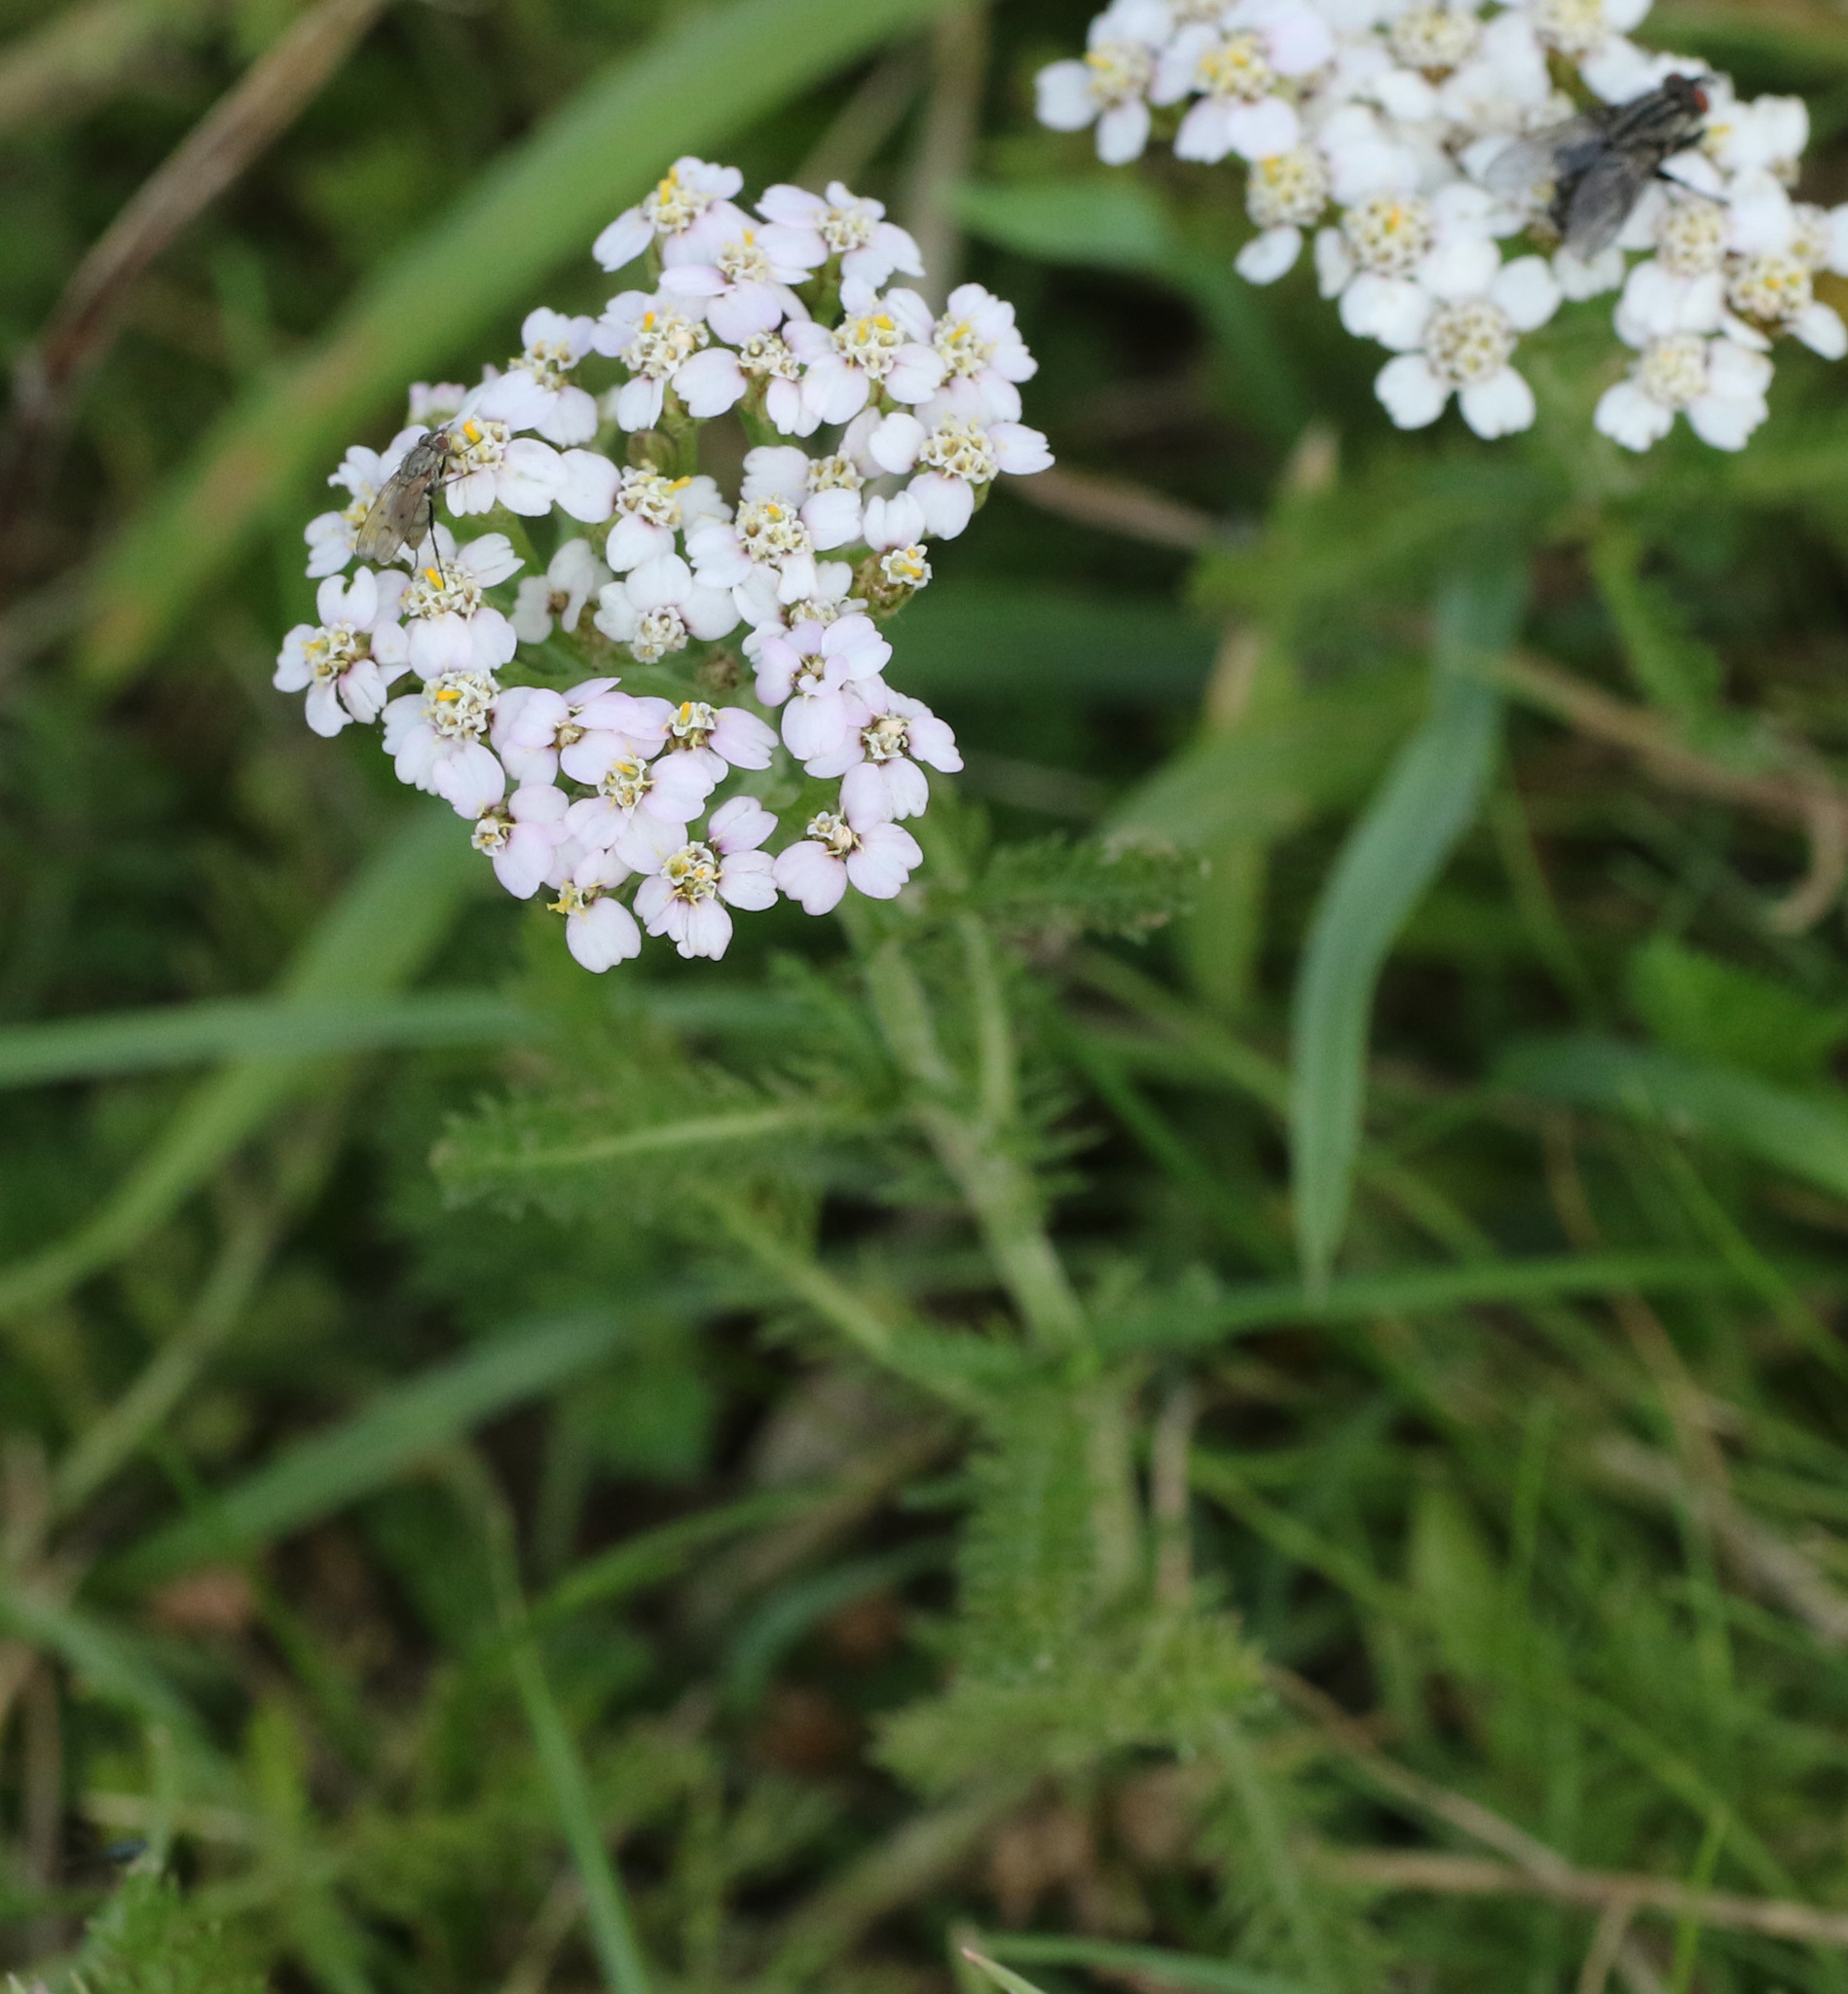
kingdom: Plantae
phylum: Tracheophyta
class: Magnoliopsida
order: Asterales
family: Asteraceae
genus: Achillea
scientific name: Achillea millefolium
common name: Yarrow
